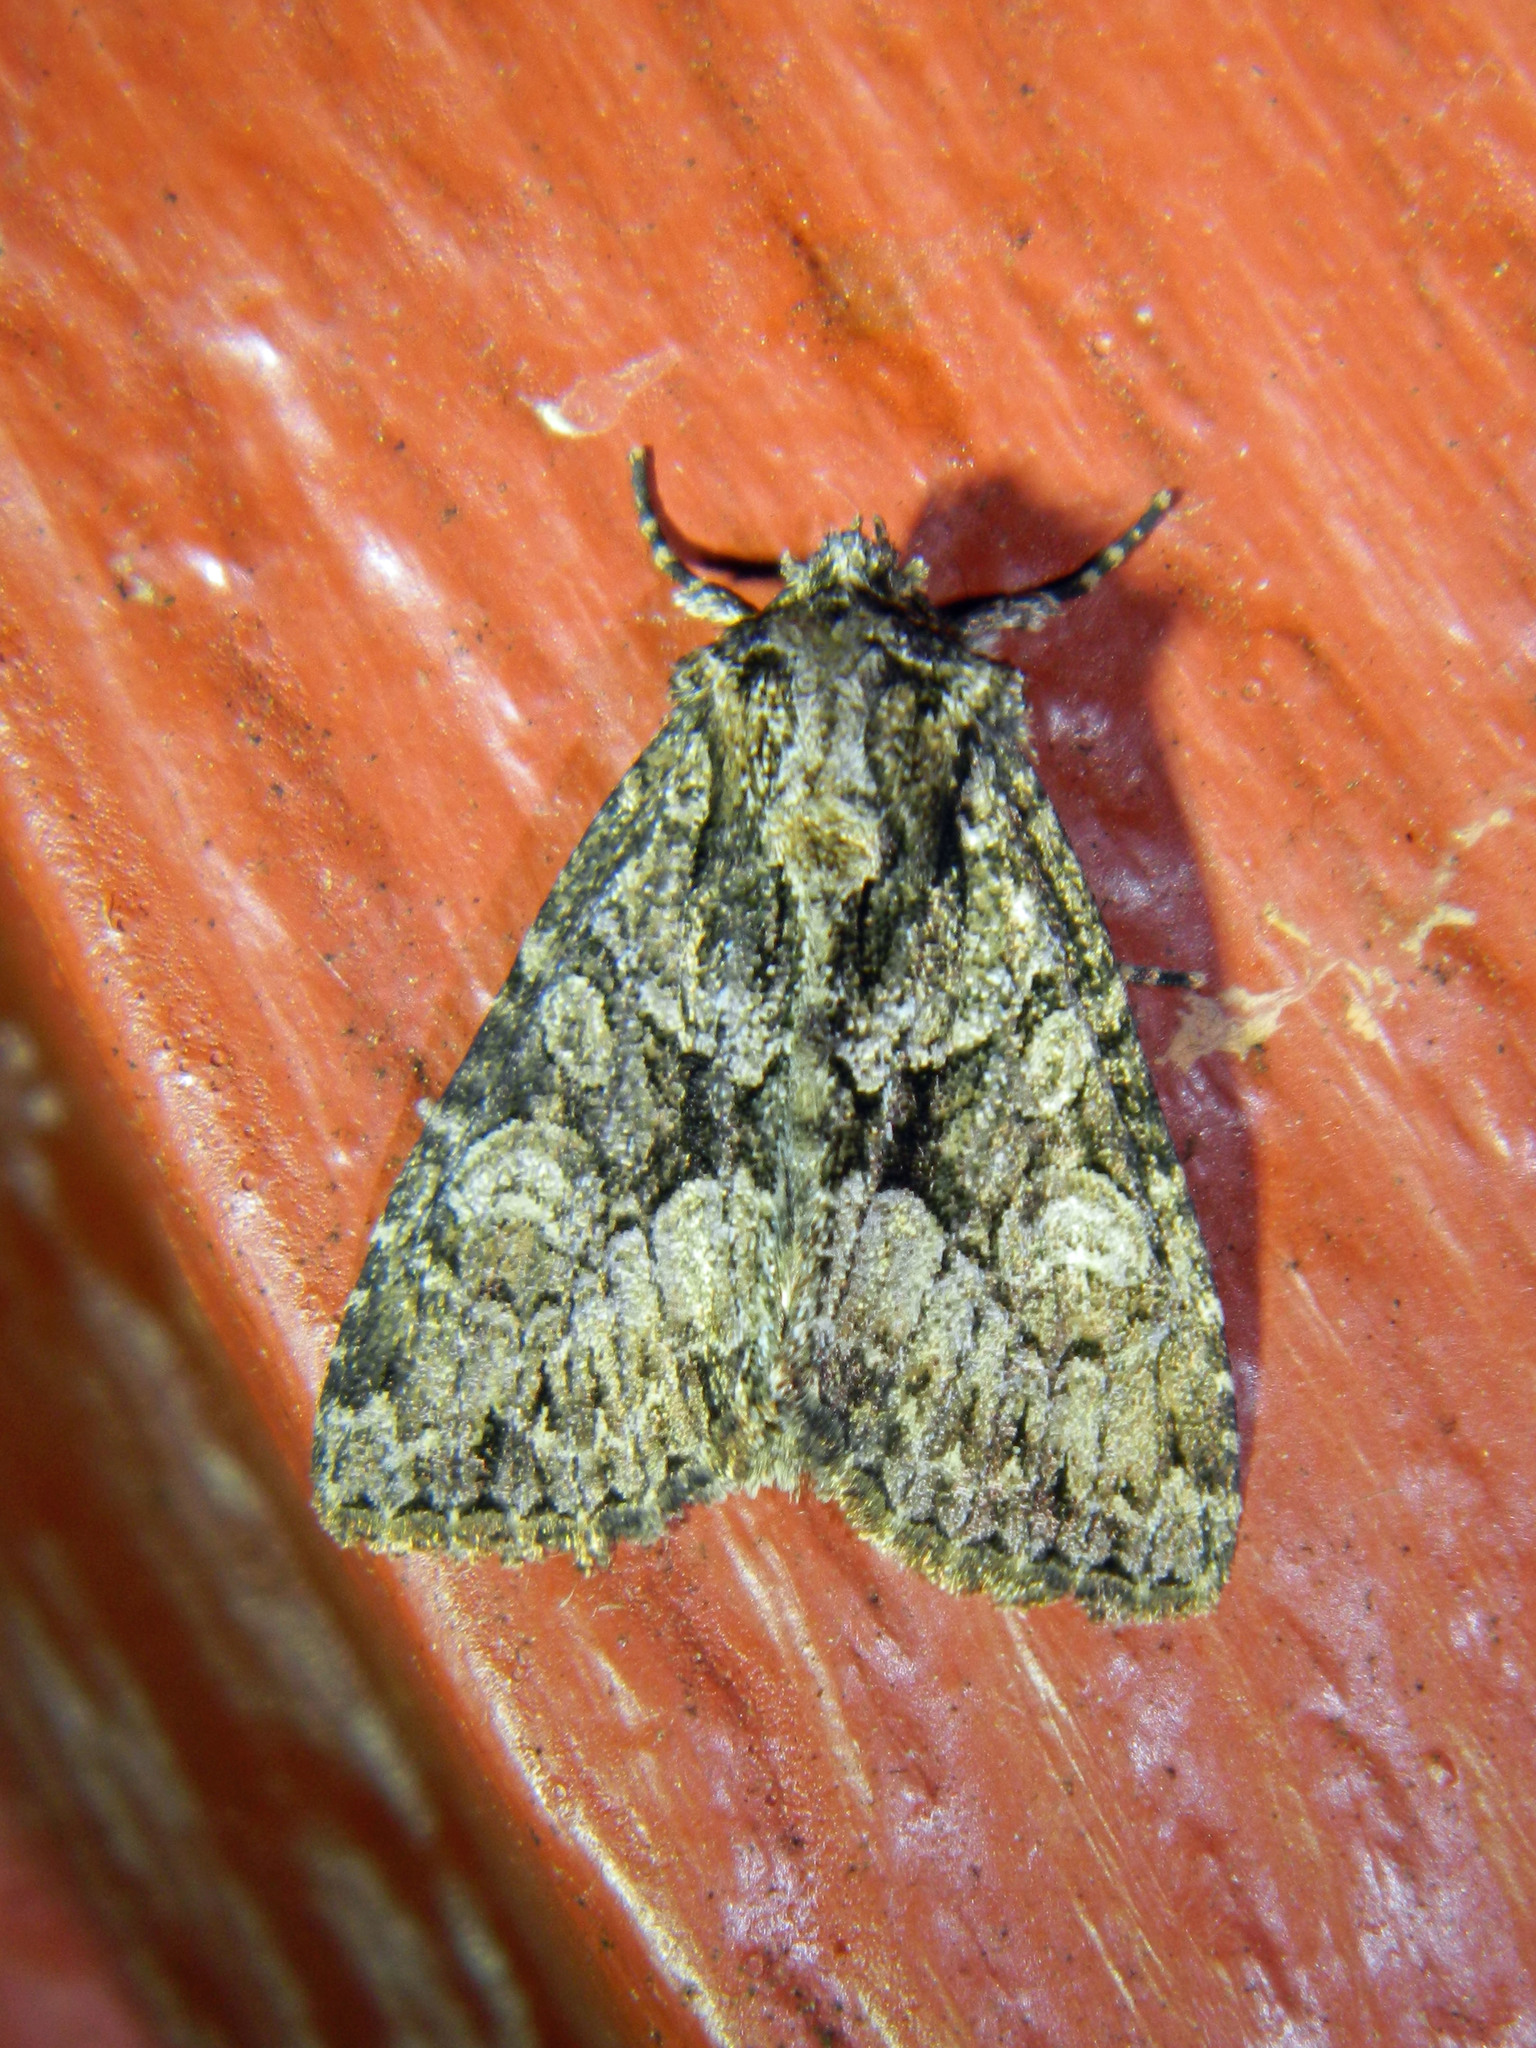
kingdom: Animalia
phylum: Arthropoda
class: Insecta
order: Lepidoptera
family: Noctuidae
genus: Platypolia
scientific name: Platypolia mactata
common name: Adorable brocade moth
